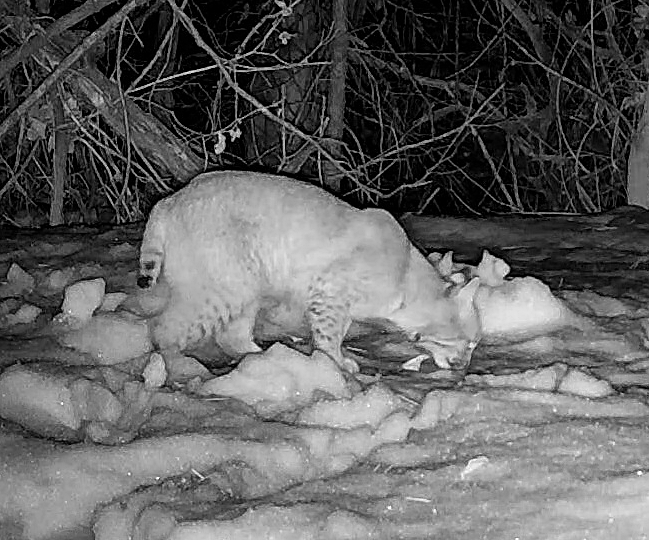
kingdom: Animalia
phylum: Chordata
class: Mammalia
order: Carnivora
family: Felidae
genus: Lynx
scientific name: Lynx rufus
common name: Bobcat
